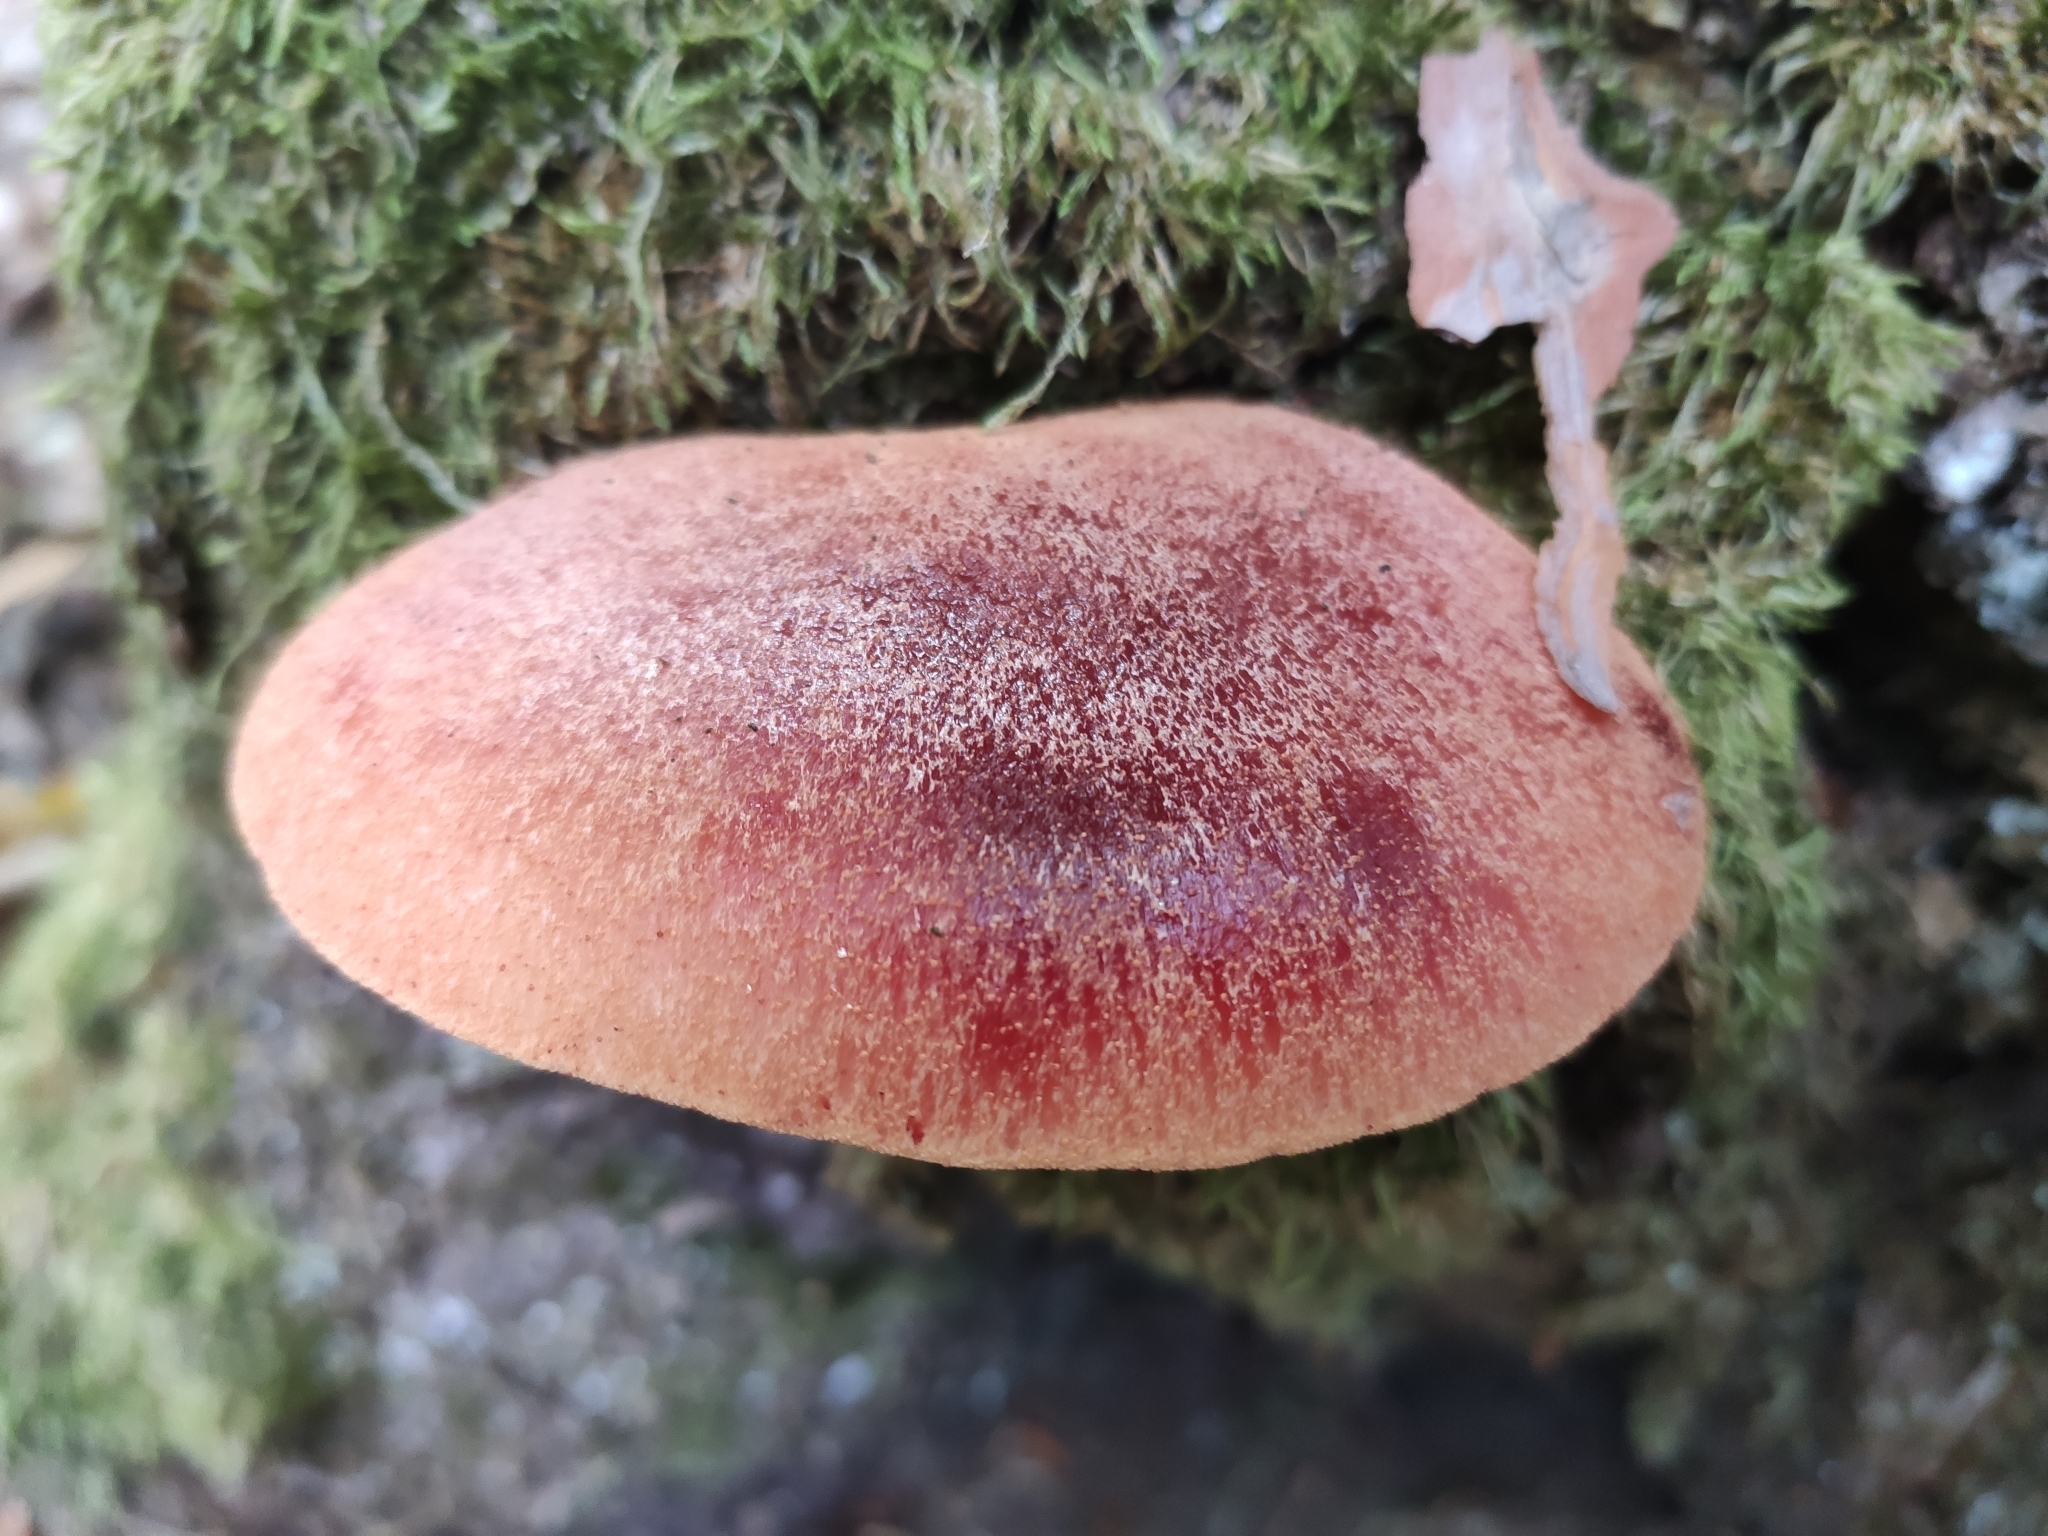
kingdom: Fungi
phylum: Basidiomycota
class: Agaricomycetes
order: Agaricales
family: Fistulinaceae
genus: Fistulina
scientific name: Fistulina hepatica
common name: Beef-steak fungus
